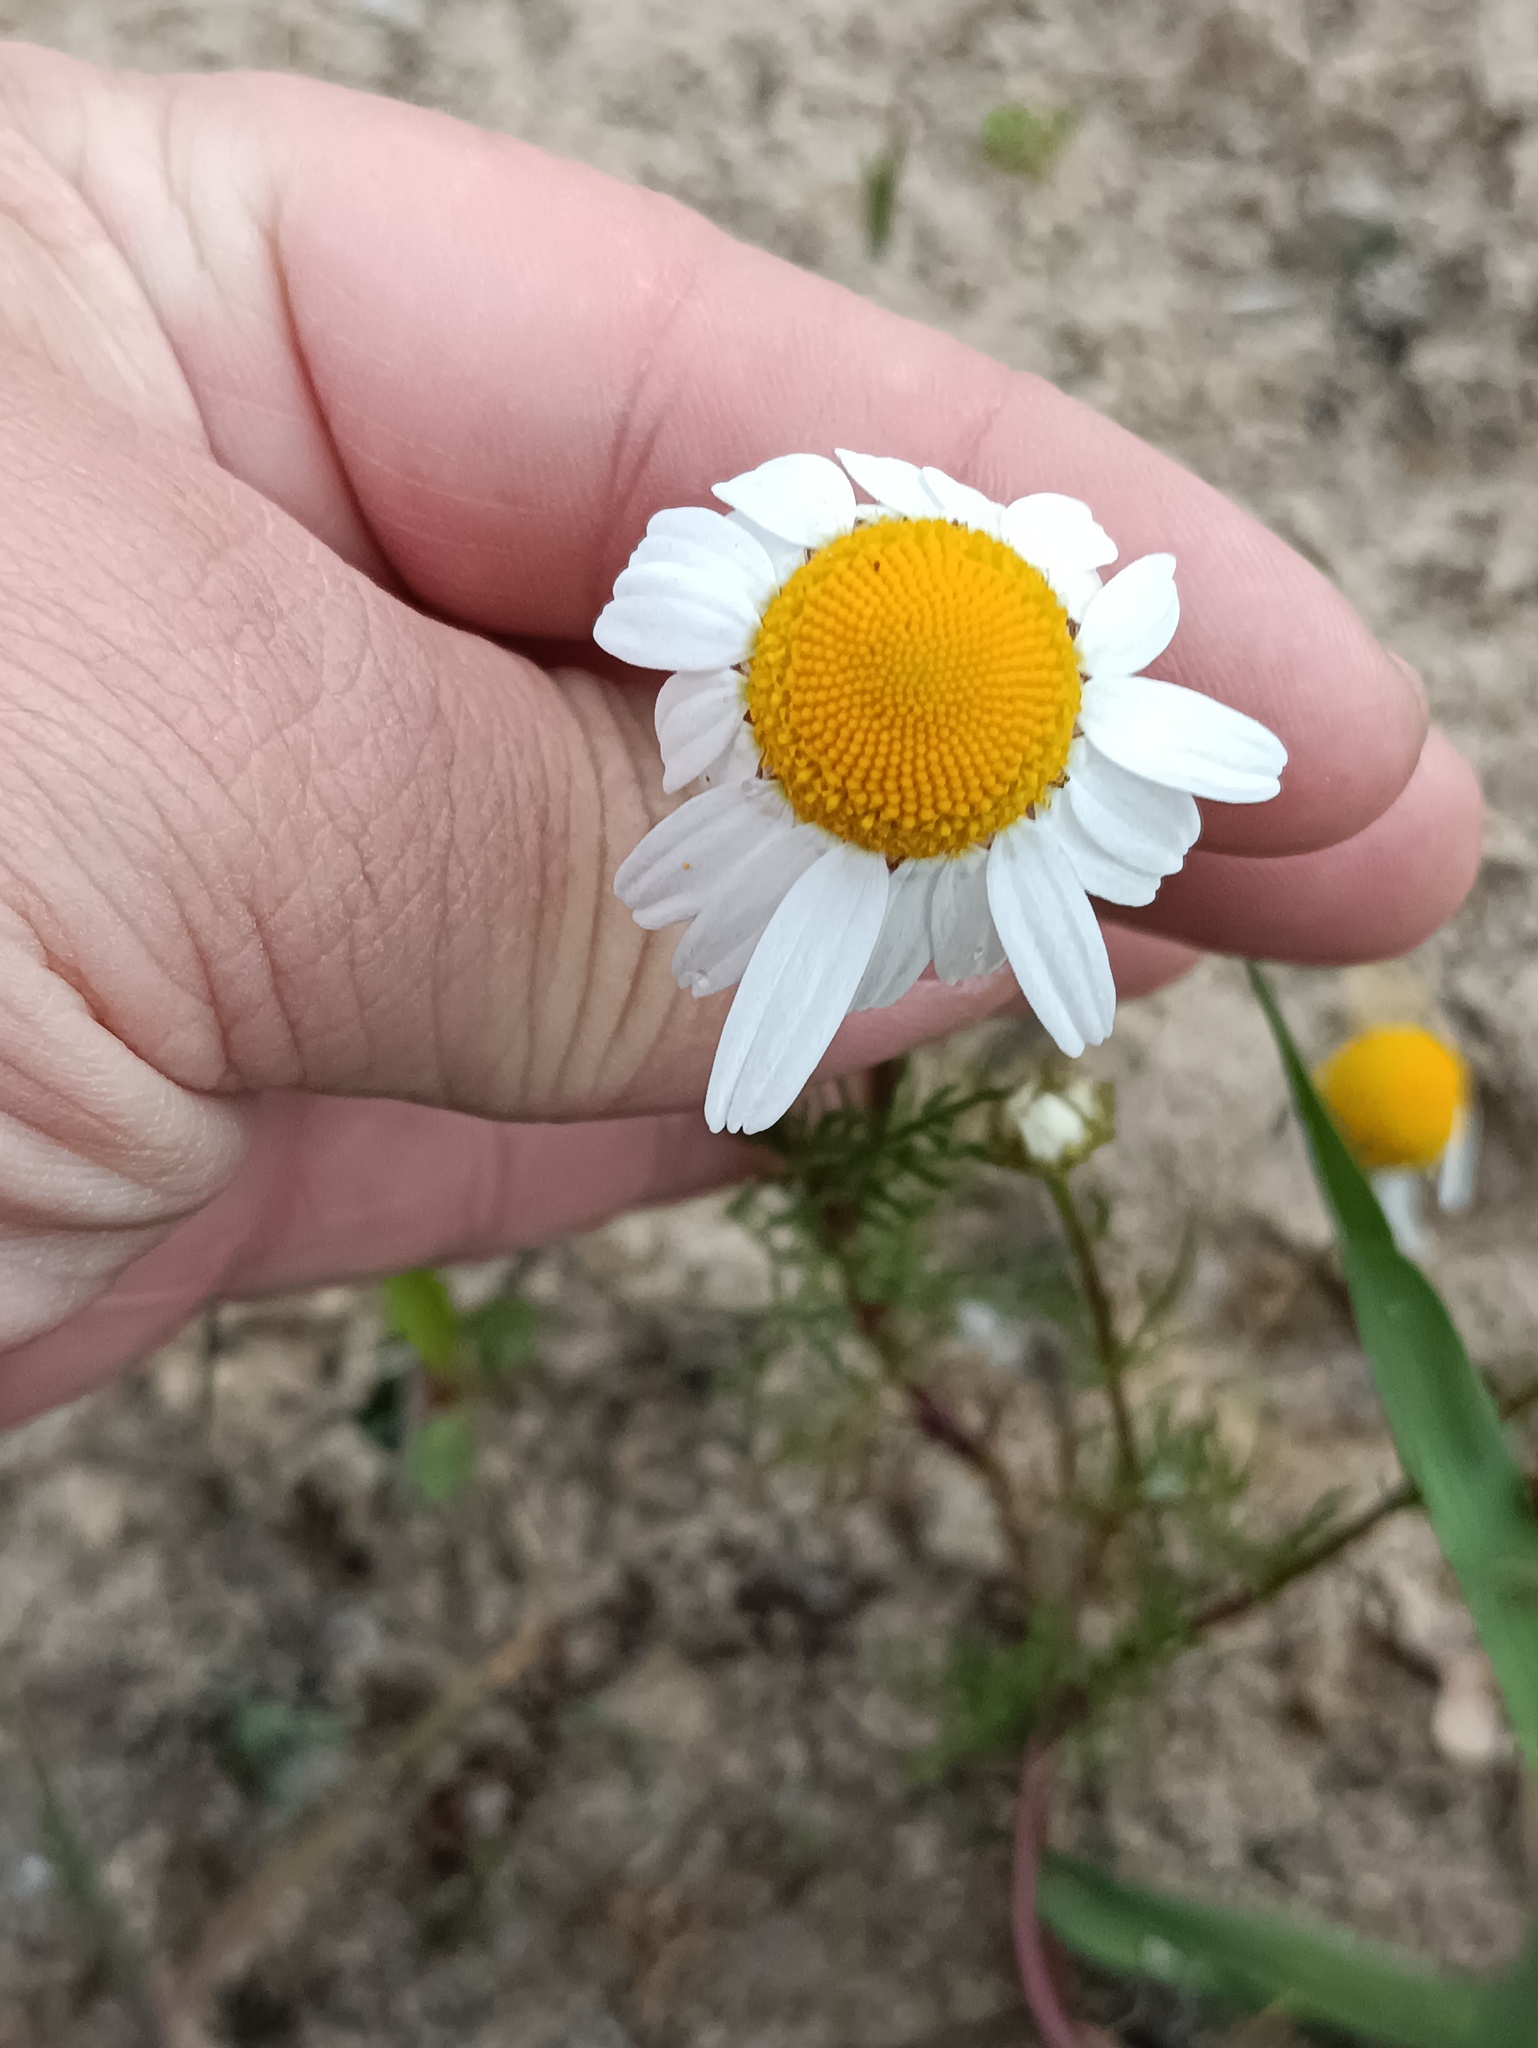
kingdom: Plantae
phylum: Tracheophyta
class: Magnoliopsida
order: Asterales
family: Asteraceae
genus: Tripleurospermum
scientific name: Tripleurospermum inodorum
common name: Scentless mayweed
